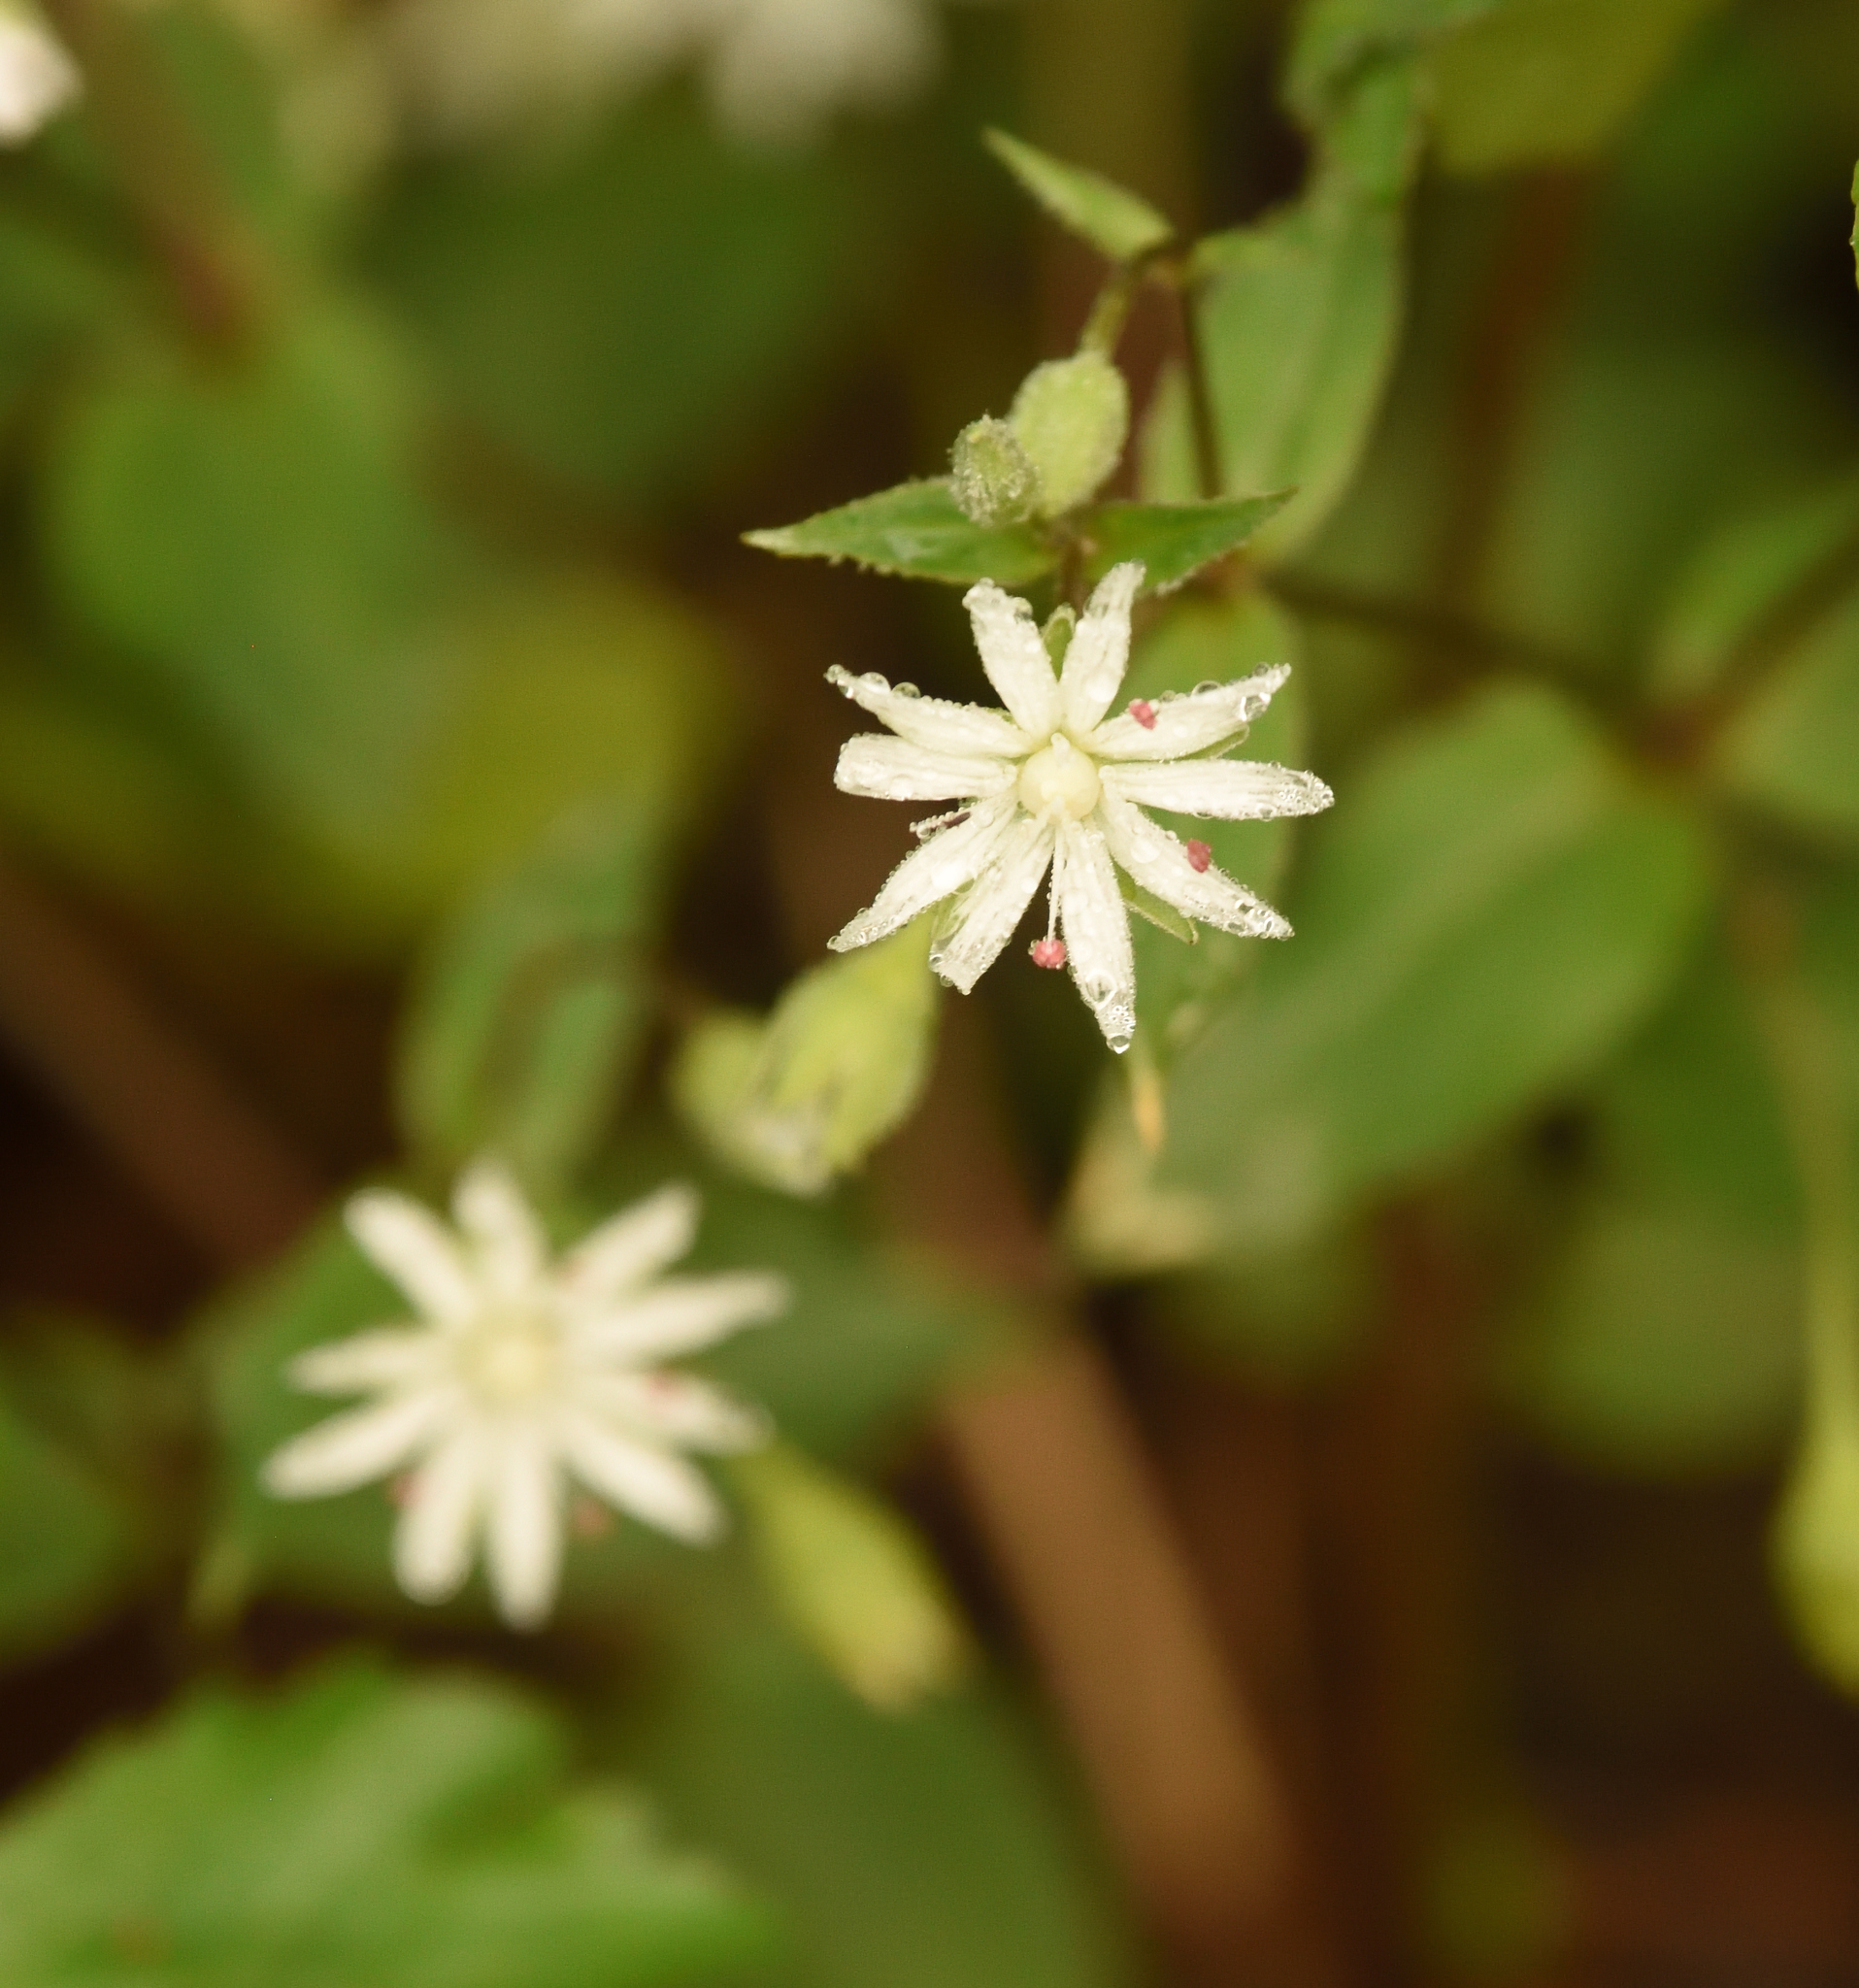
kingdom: Plantae
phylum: Tracheophyta
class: Magnoliopsida
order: Caryophyllales
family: Caryophyllaceae
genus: Stellaria
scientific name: Stellaria pubera
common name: Star chickweed
